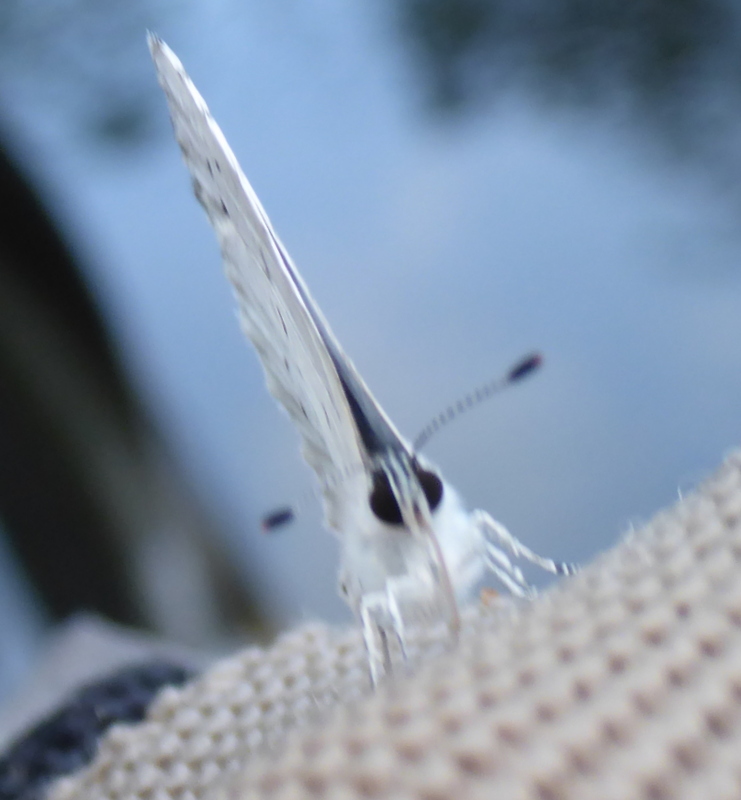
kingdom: Animalia
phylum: Arthropoda
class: Insecta
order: Lepidoptera
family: Lycaenidae
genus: Cyaniris
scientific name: Cyaniris neglecta
